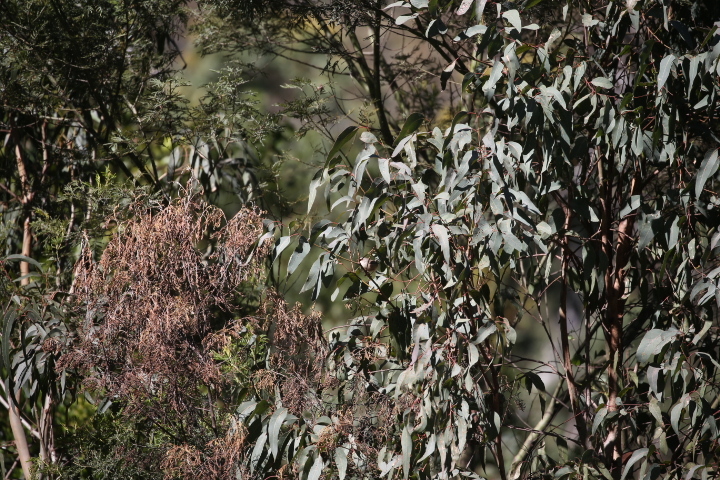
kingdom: Animalia
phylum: Chordata
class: Aves
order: Passeriformes
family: Maluridae
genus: Malurus
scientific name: Malurus lamberti
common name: Variegated fairywren
